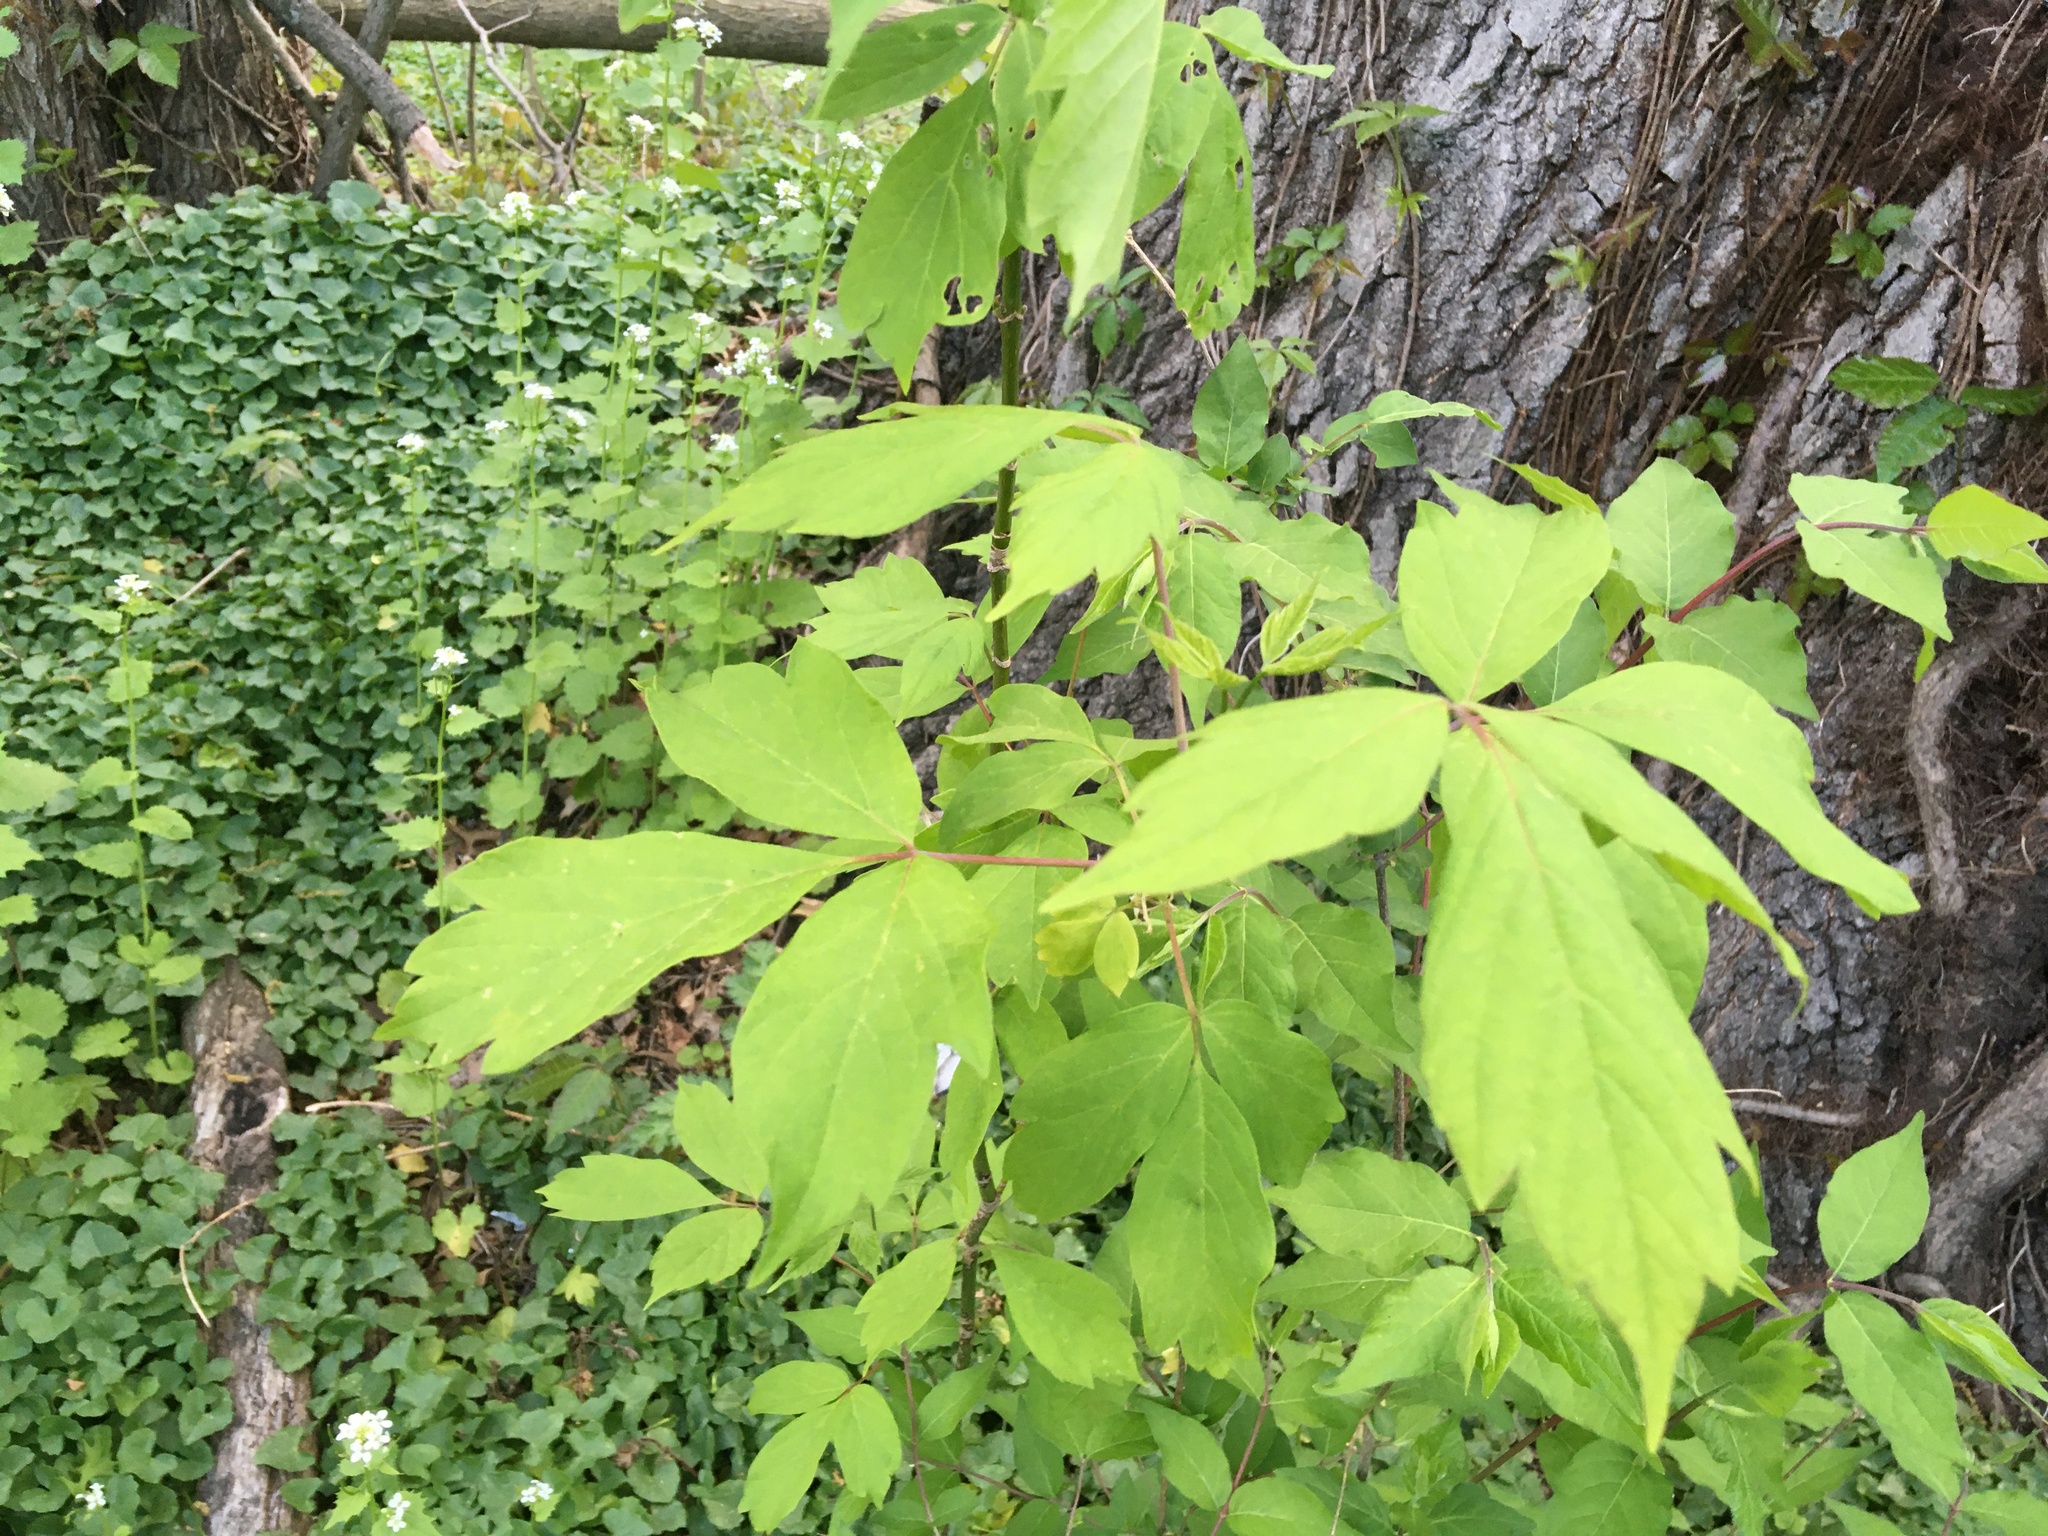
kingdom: Plantae
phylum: Tracheophyta
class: Magnoliopsida
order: Sapindales
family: Sapindaceae
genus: Acer
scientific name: Acer negundo
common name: Ashleaf maple
